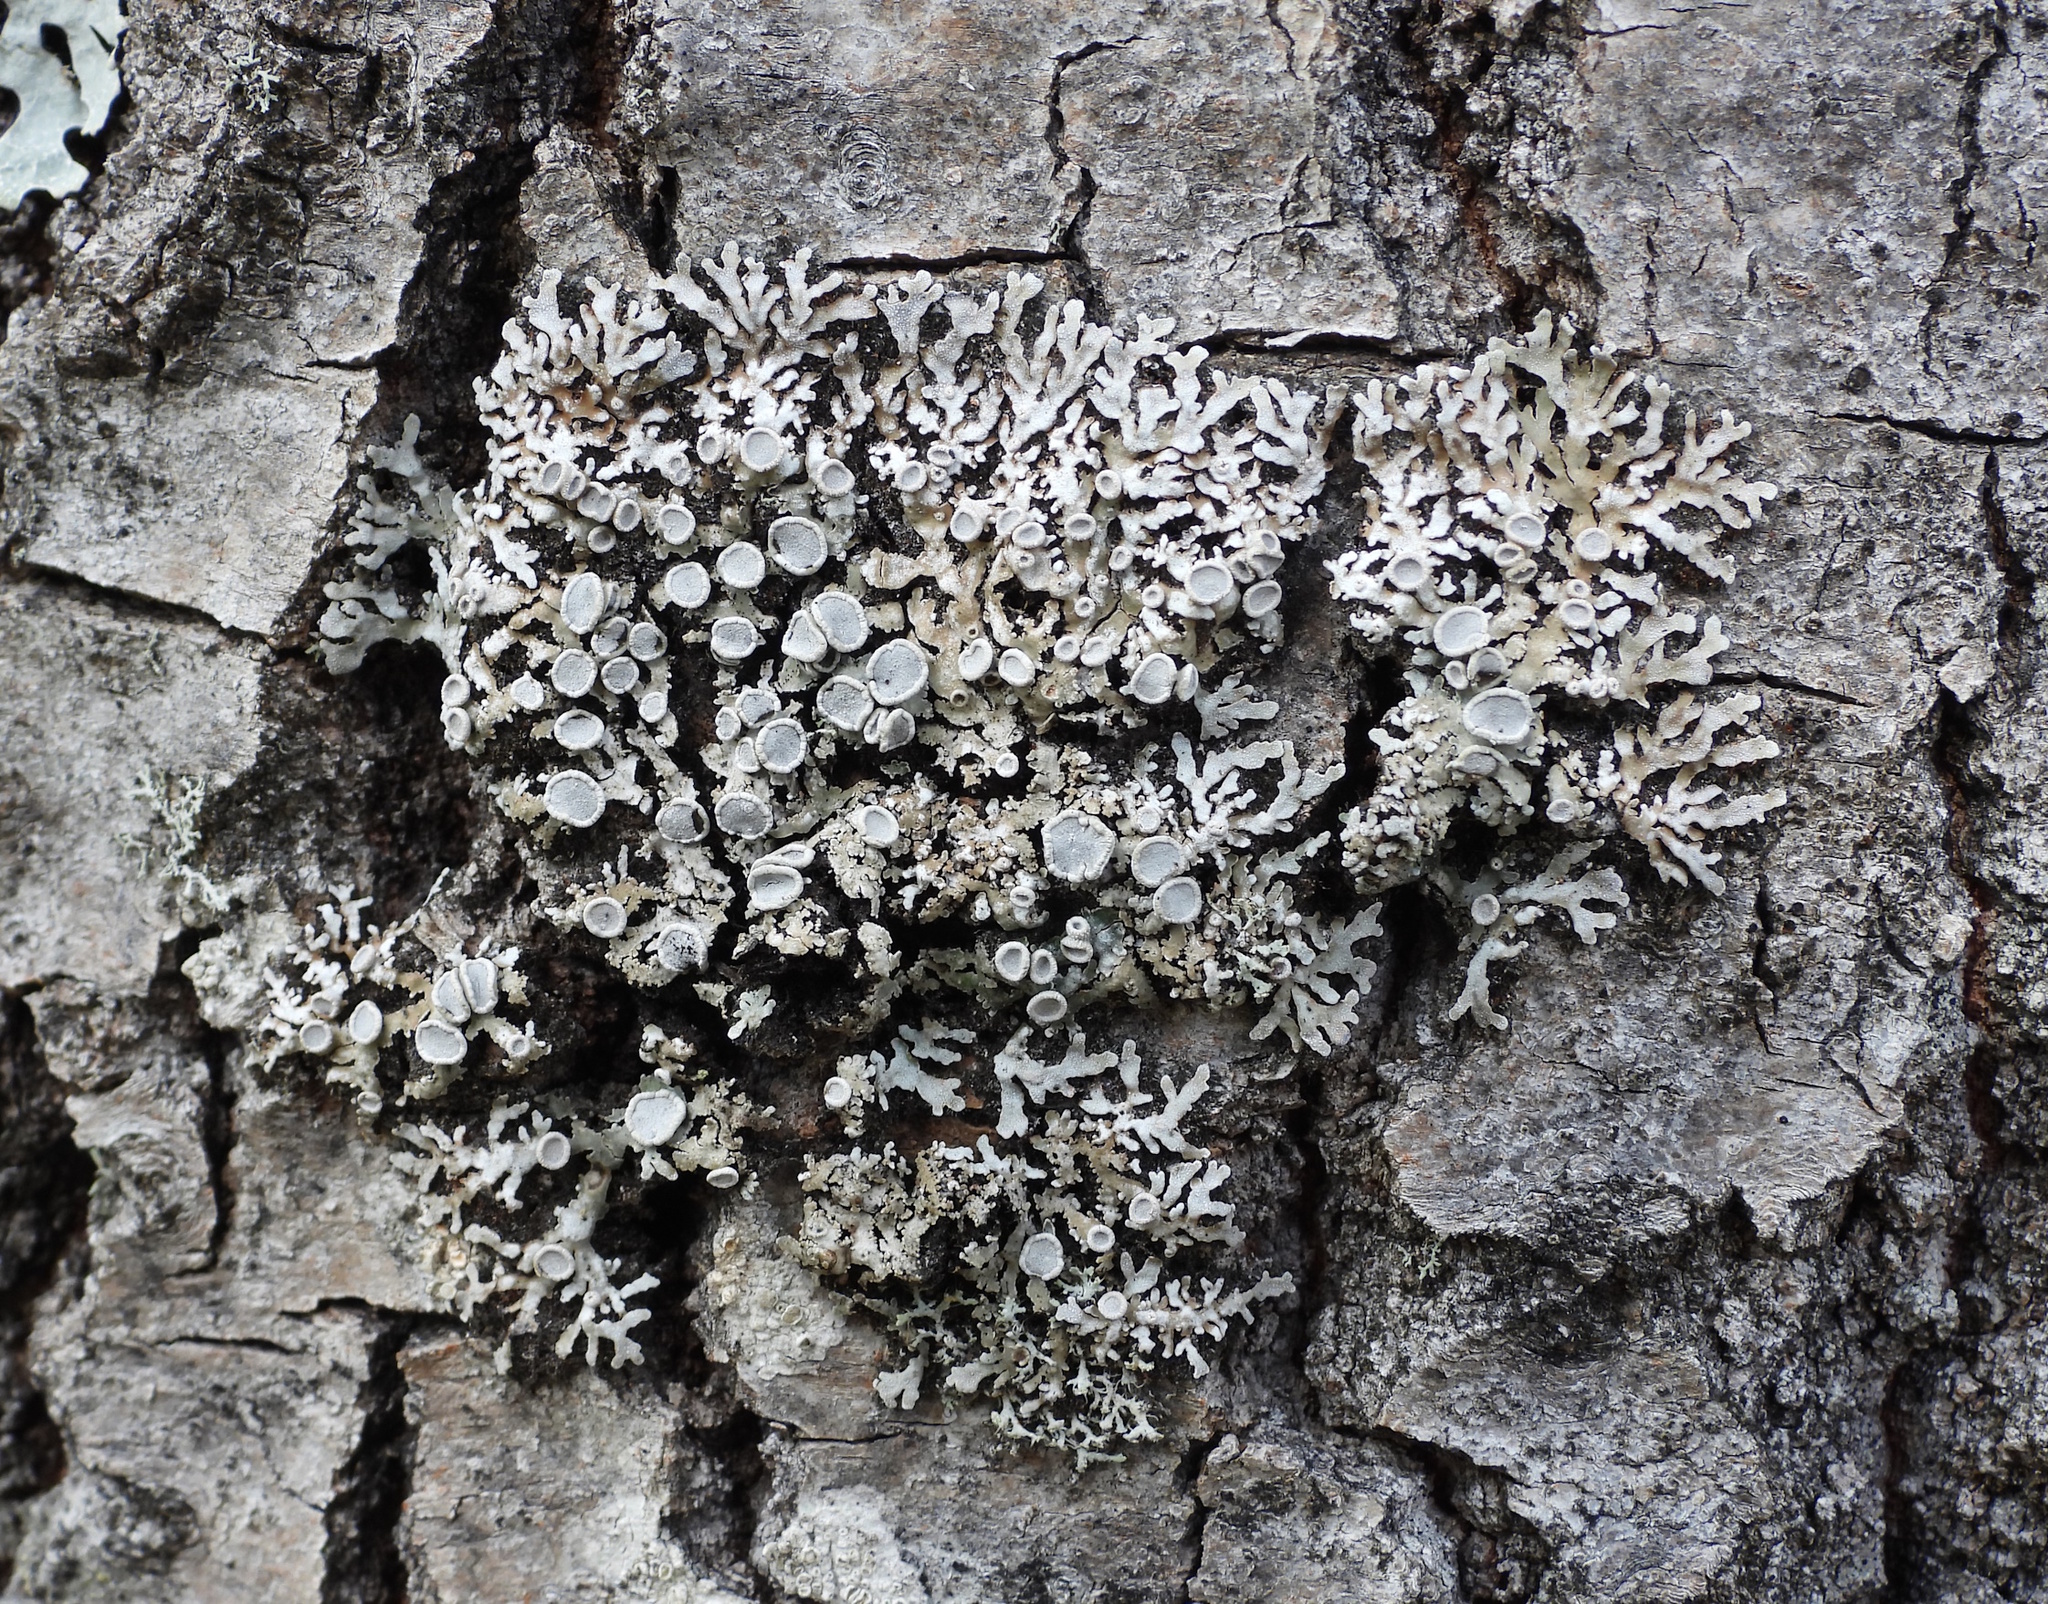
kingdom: Fungi
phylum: Ascomycota
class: Lecanoromycetes
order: Caliciales
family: Physciaceae
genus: Physconia
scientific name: Physconia distorta
